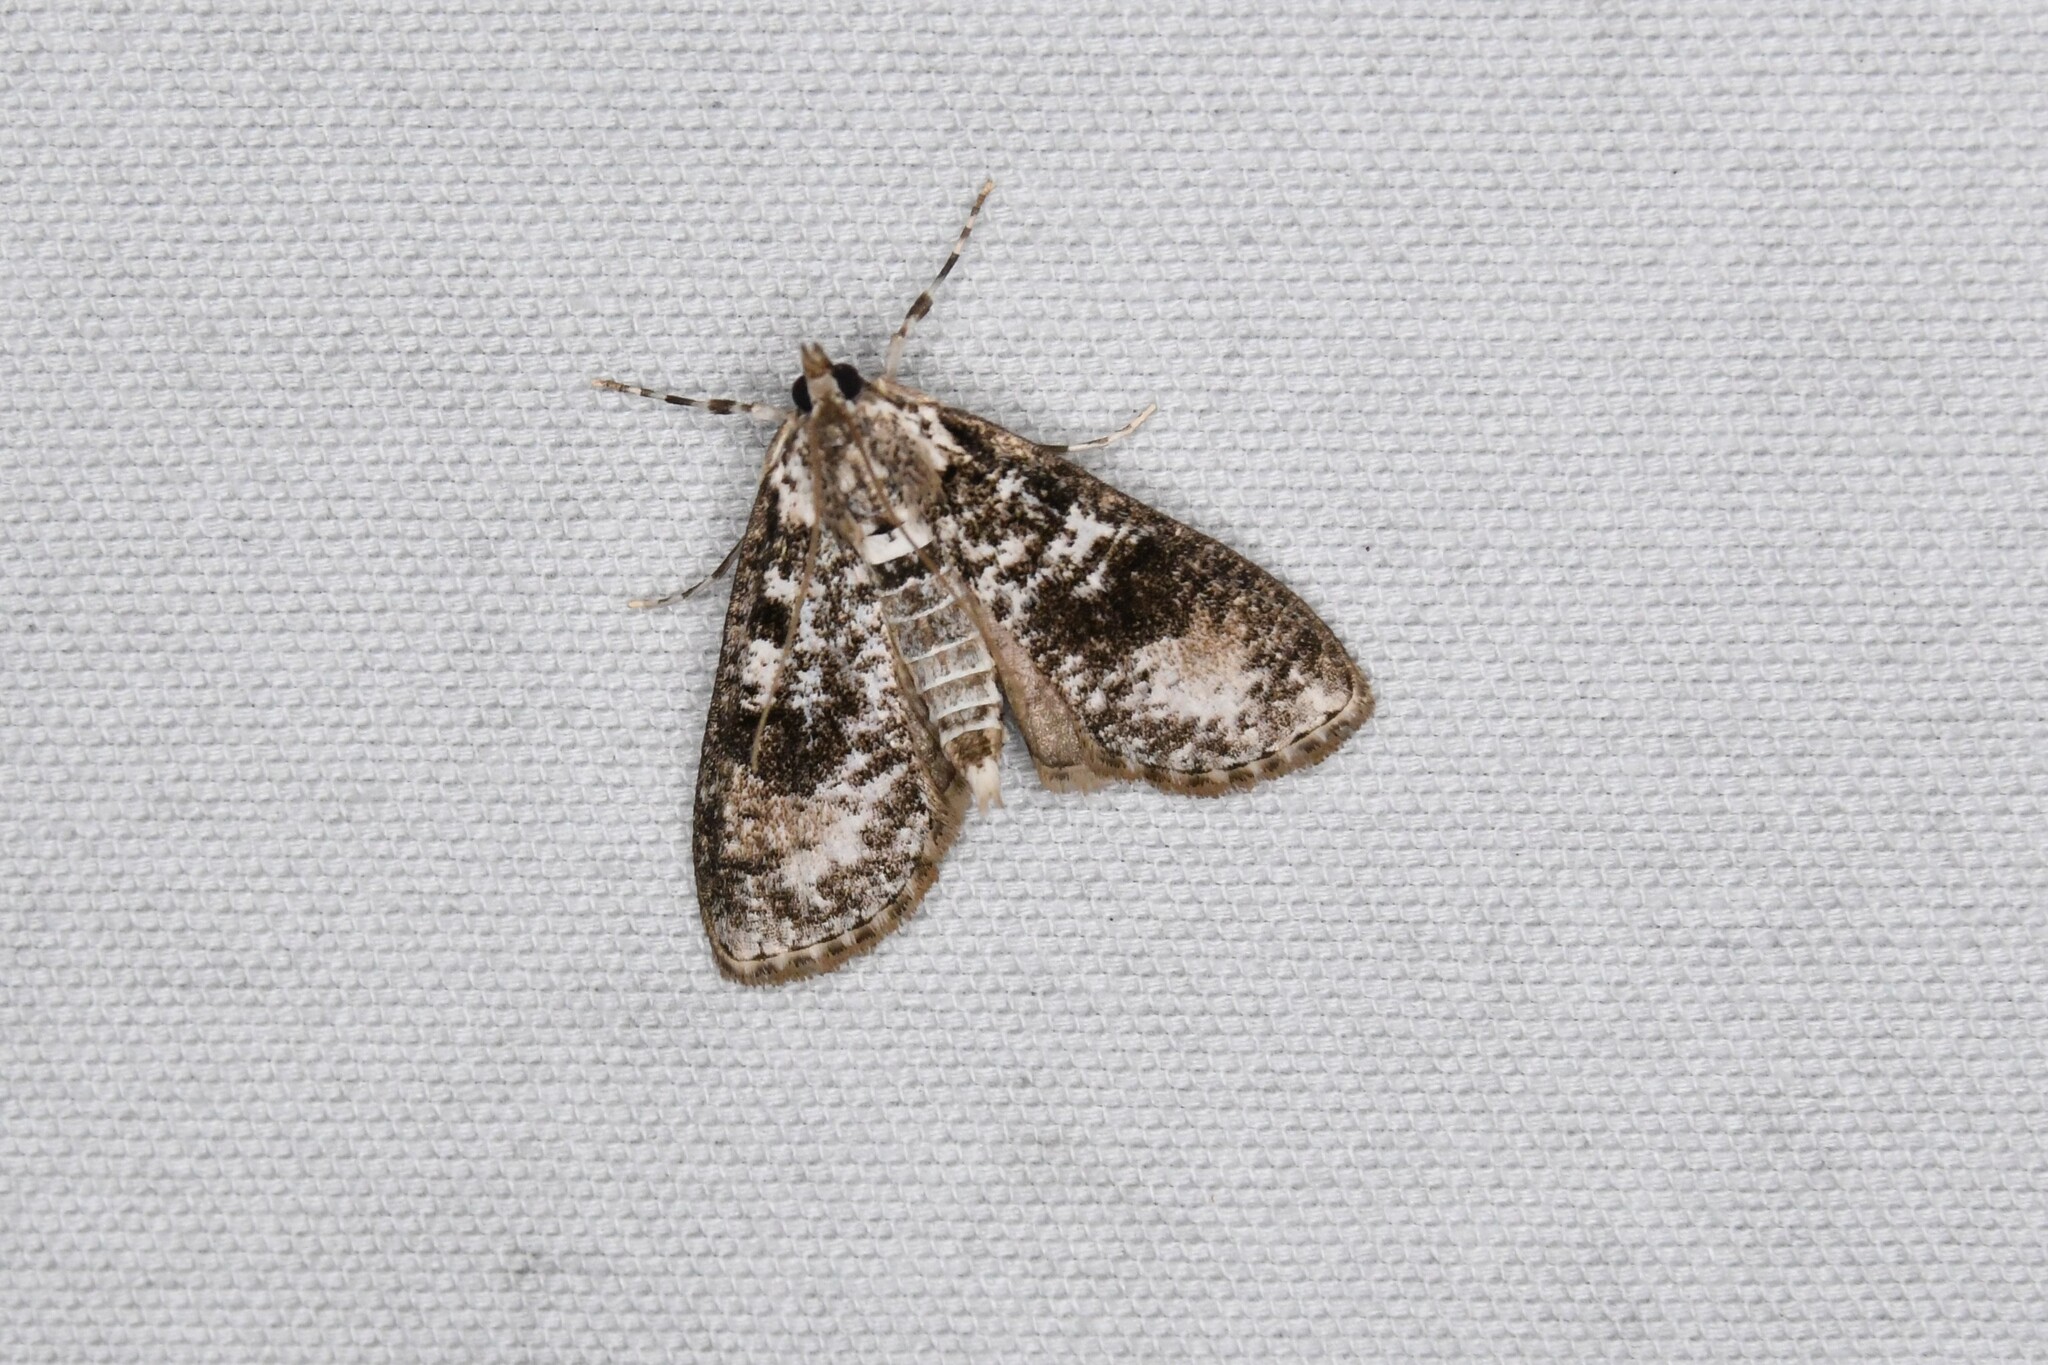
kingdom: Animalia
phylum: Arthropoda
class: Insecta
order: Lepidoptera
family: Crambidae
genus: Palpita
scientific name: Palpita magniferalis
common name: Splendid palpita moth
